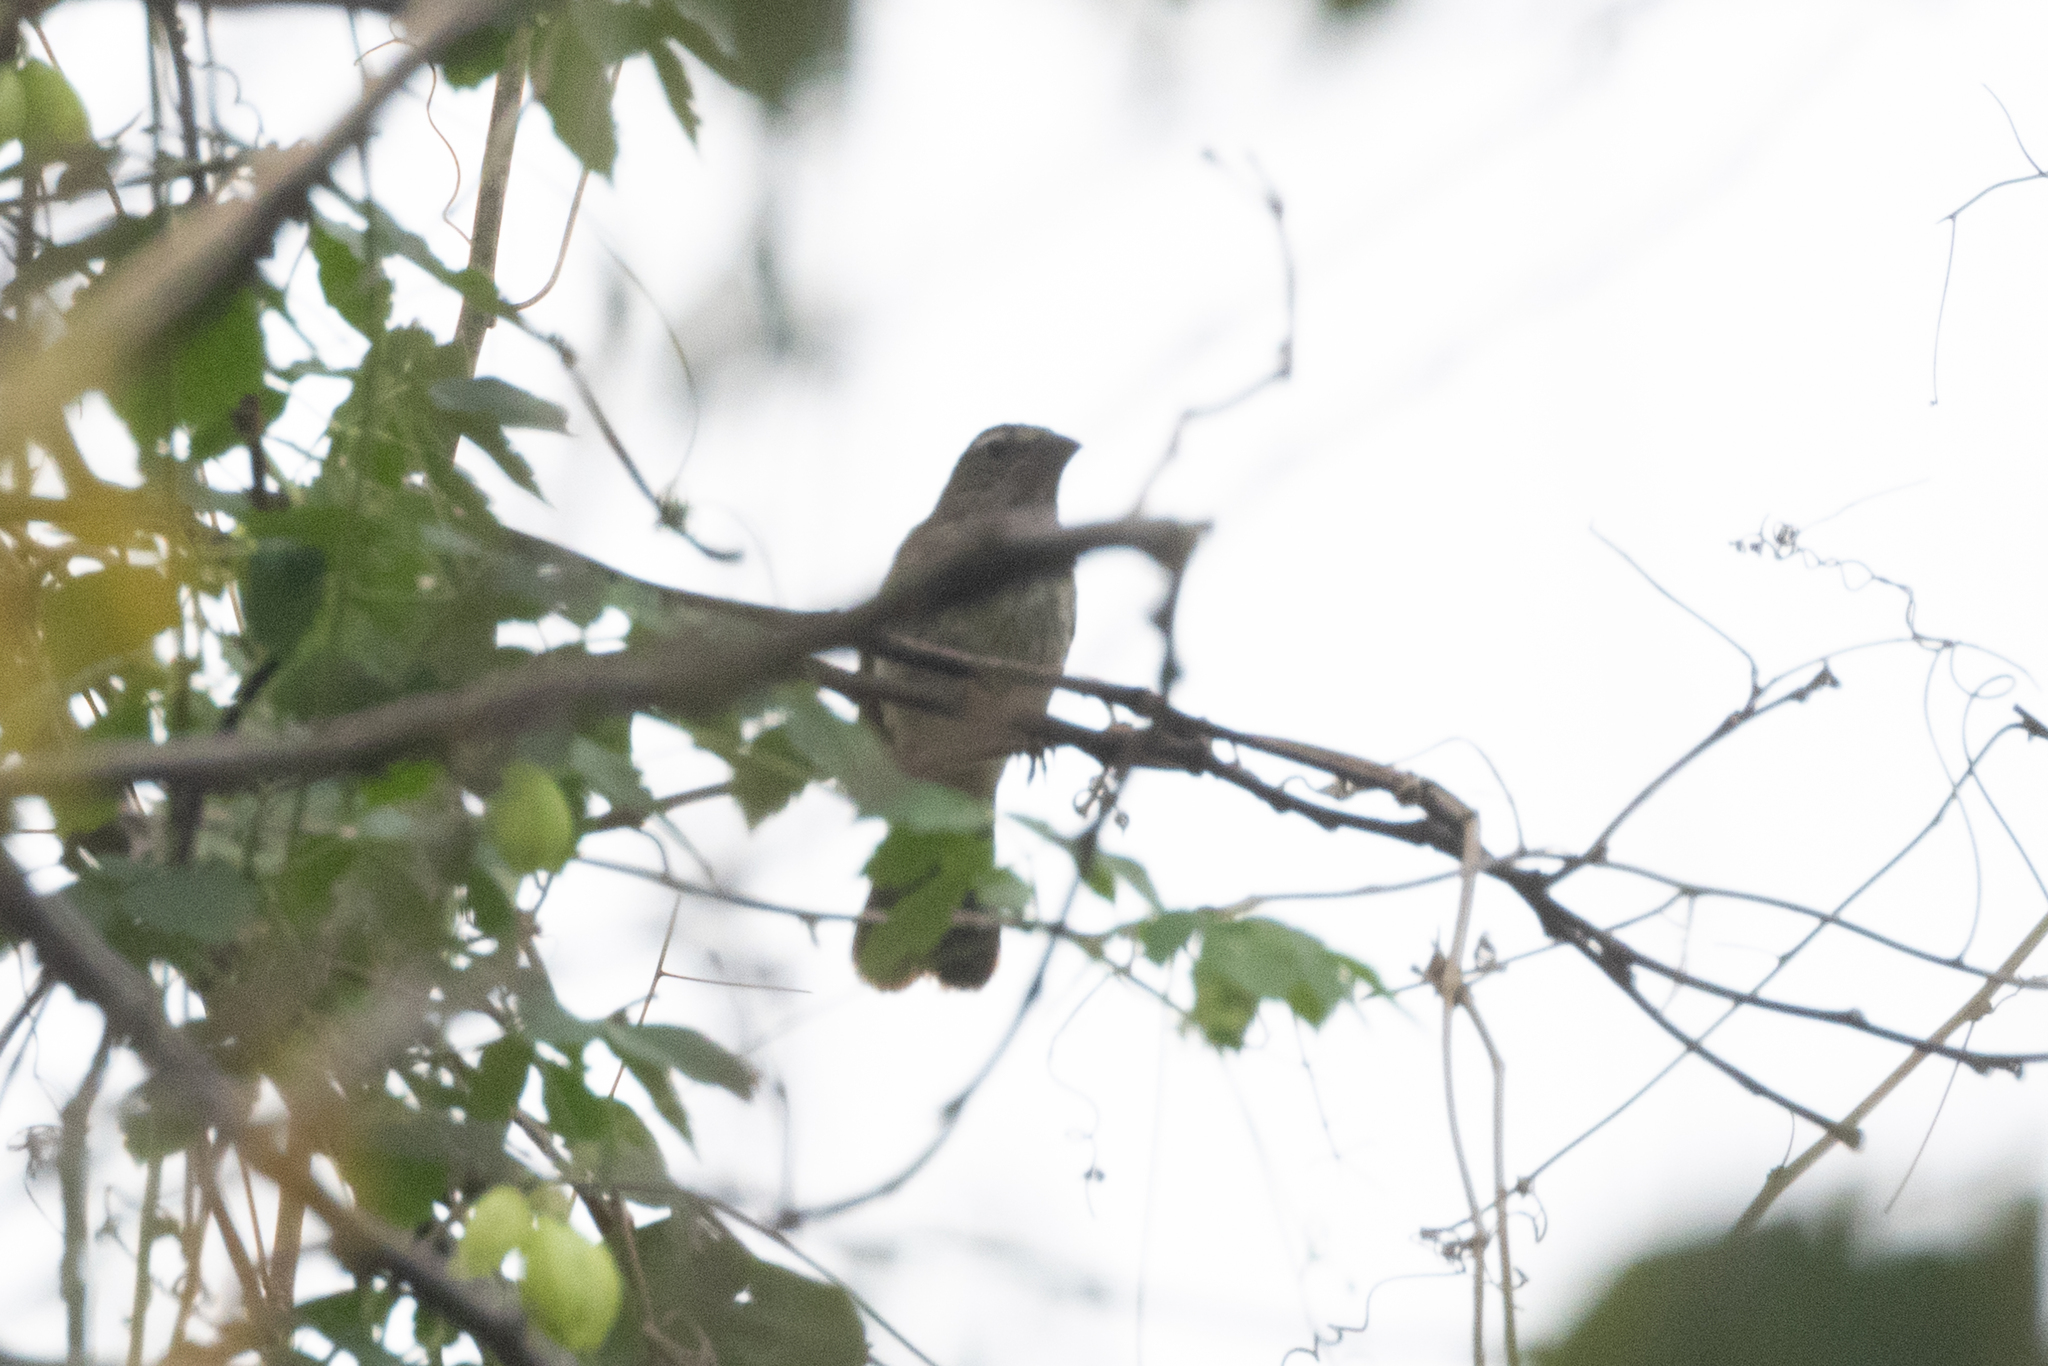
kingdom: Animalia
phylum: Chordata
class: Aves
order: Passeriformes
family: Thraupidae
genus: Saltator
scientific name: Saltator striatipectus
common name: Streaked saltator
